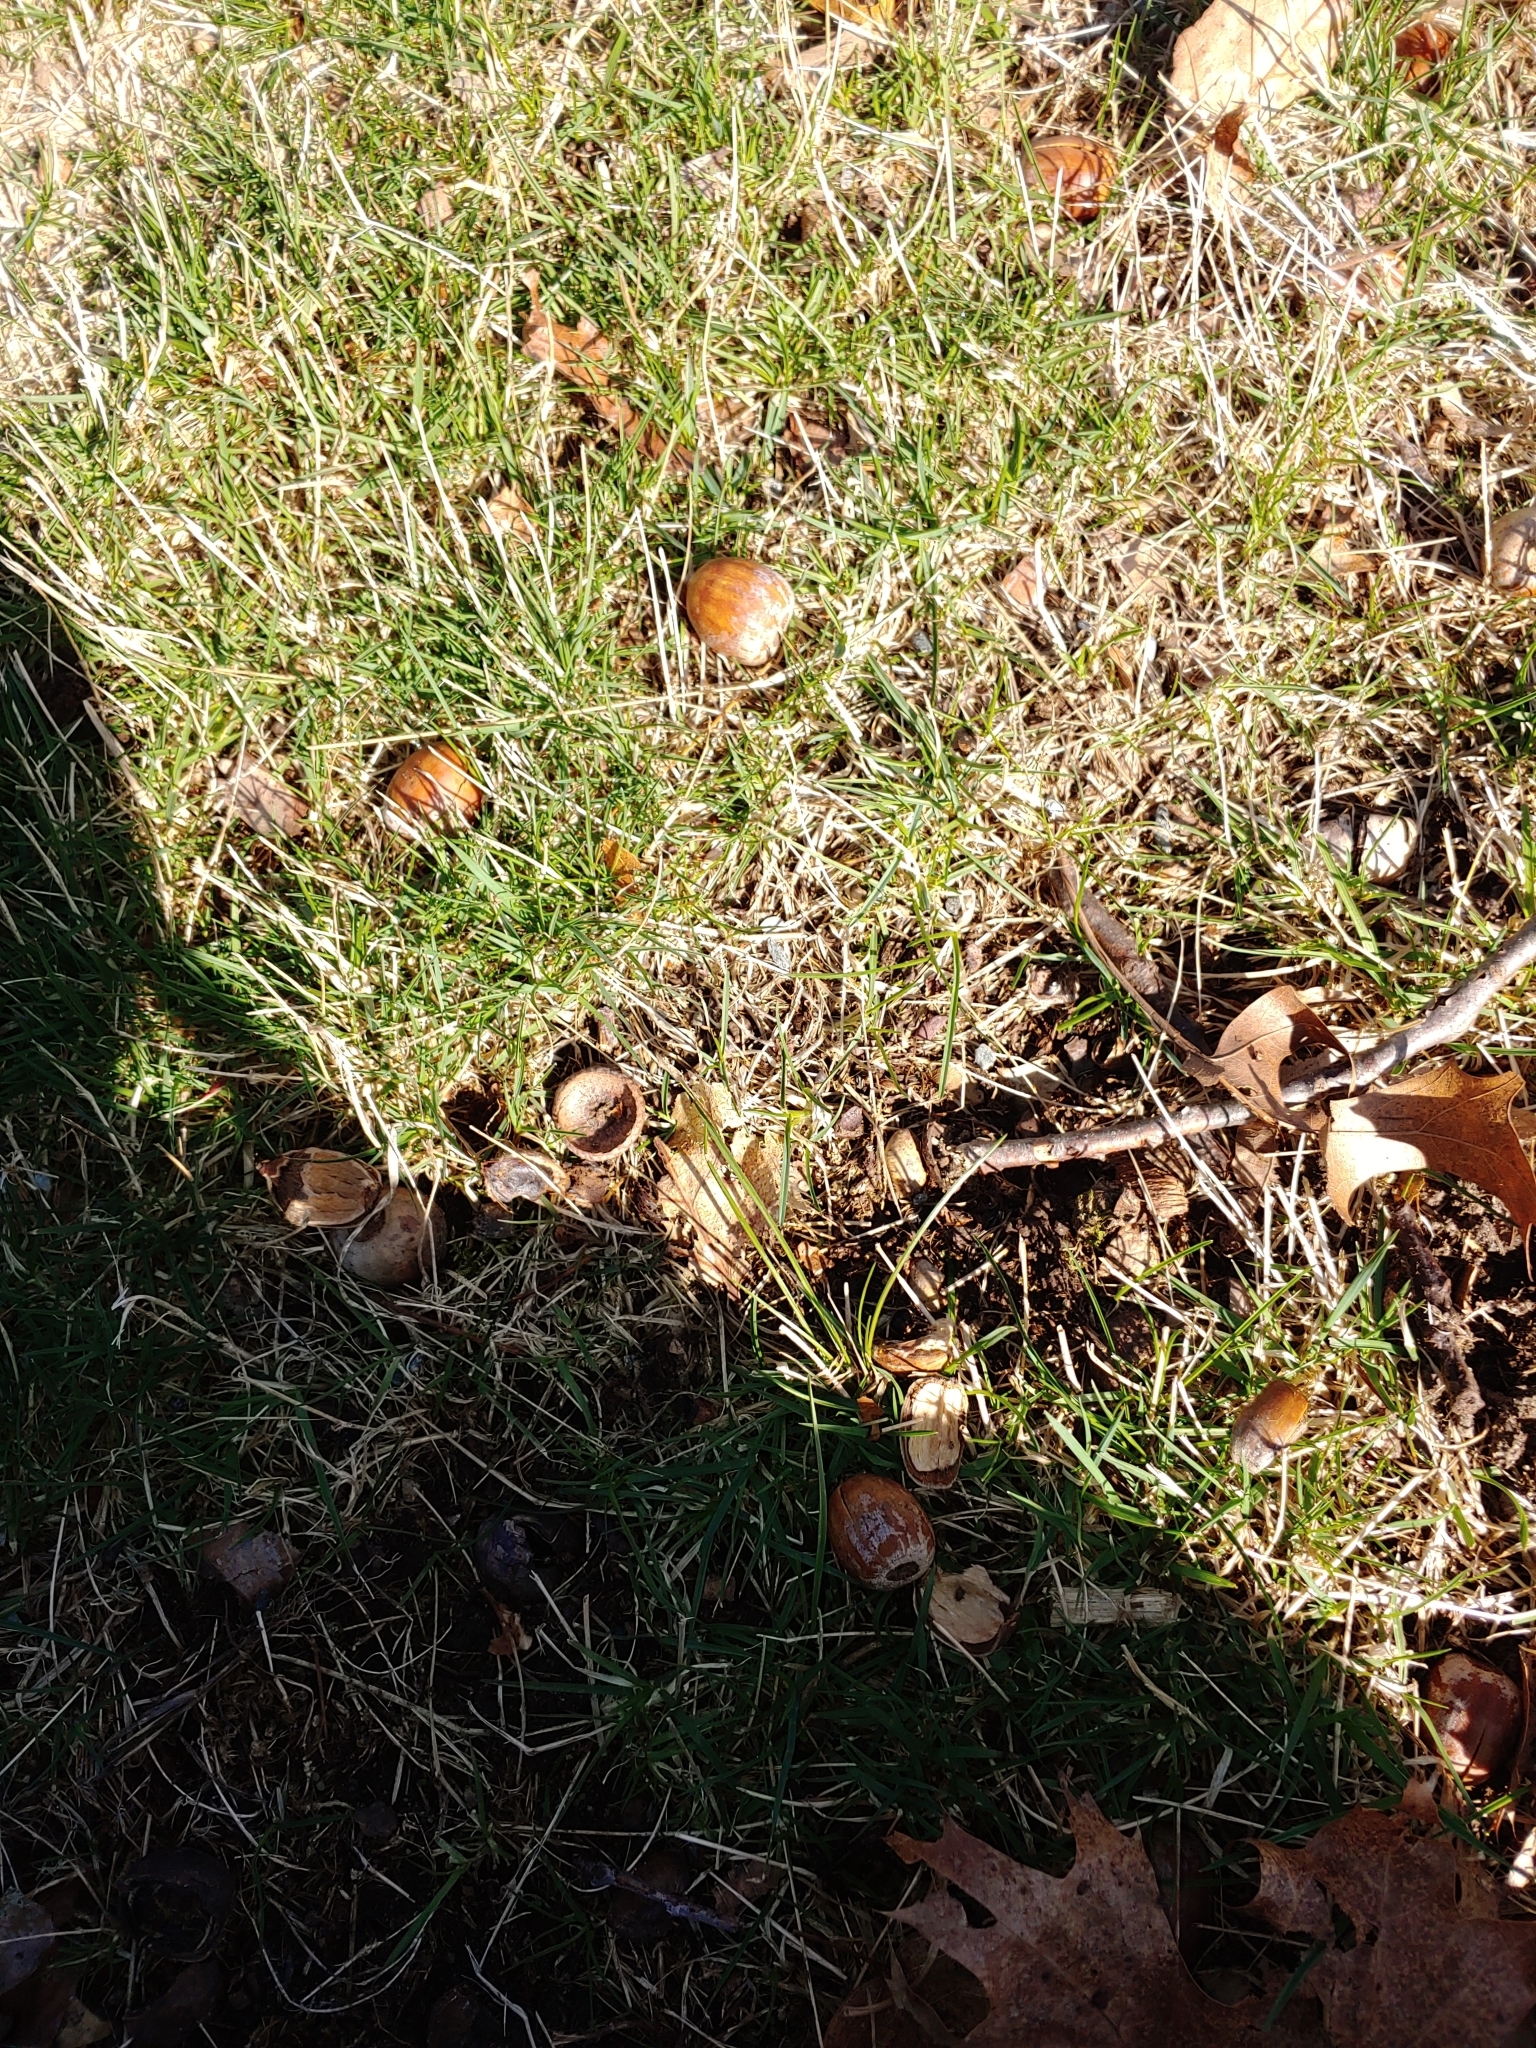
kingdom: Plantae
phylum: Tracheophyta
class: Magnoliopsida
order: Fagales
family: Fagaceae
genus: Quercus
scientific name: Quercus palustris
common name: Pin oak
